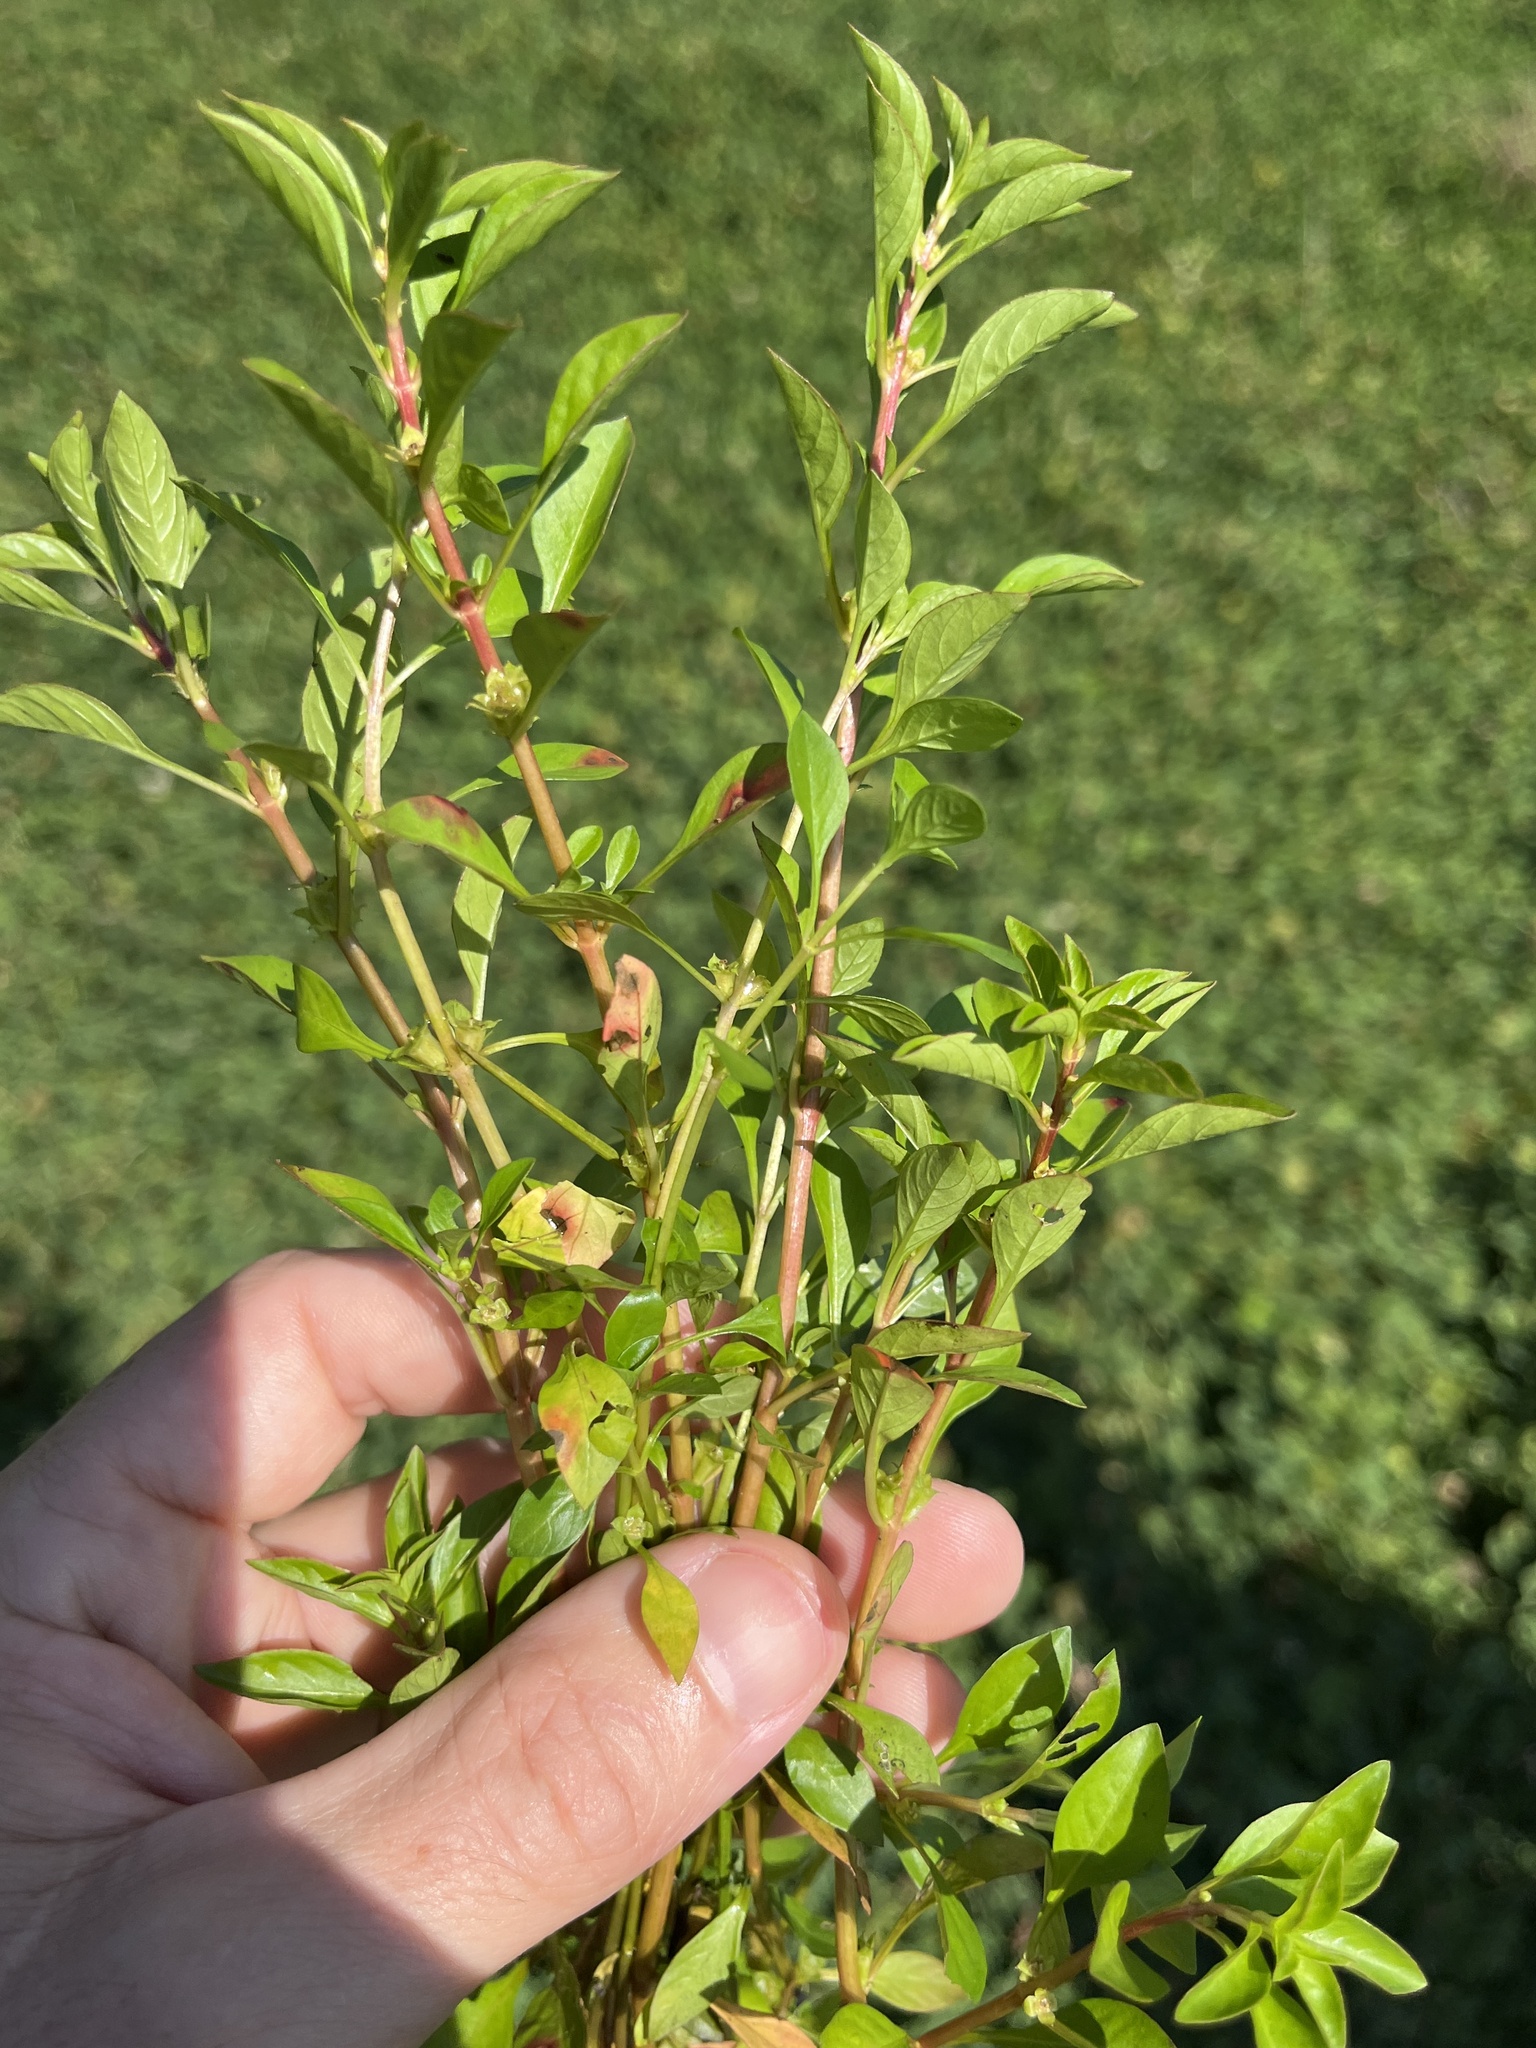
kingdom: Plantae
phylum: Tracheophyta
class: Magnoliopsida
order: Myrtales
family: Onagraceae
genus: Ludwigia
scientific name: Ludwigia palustris
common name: Hampshire-purslane
